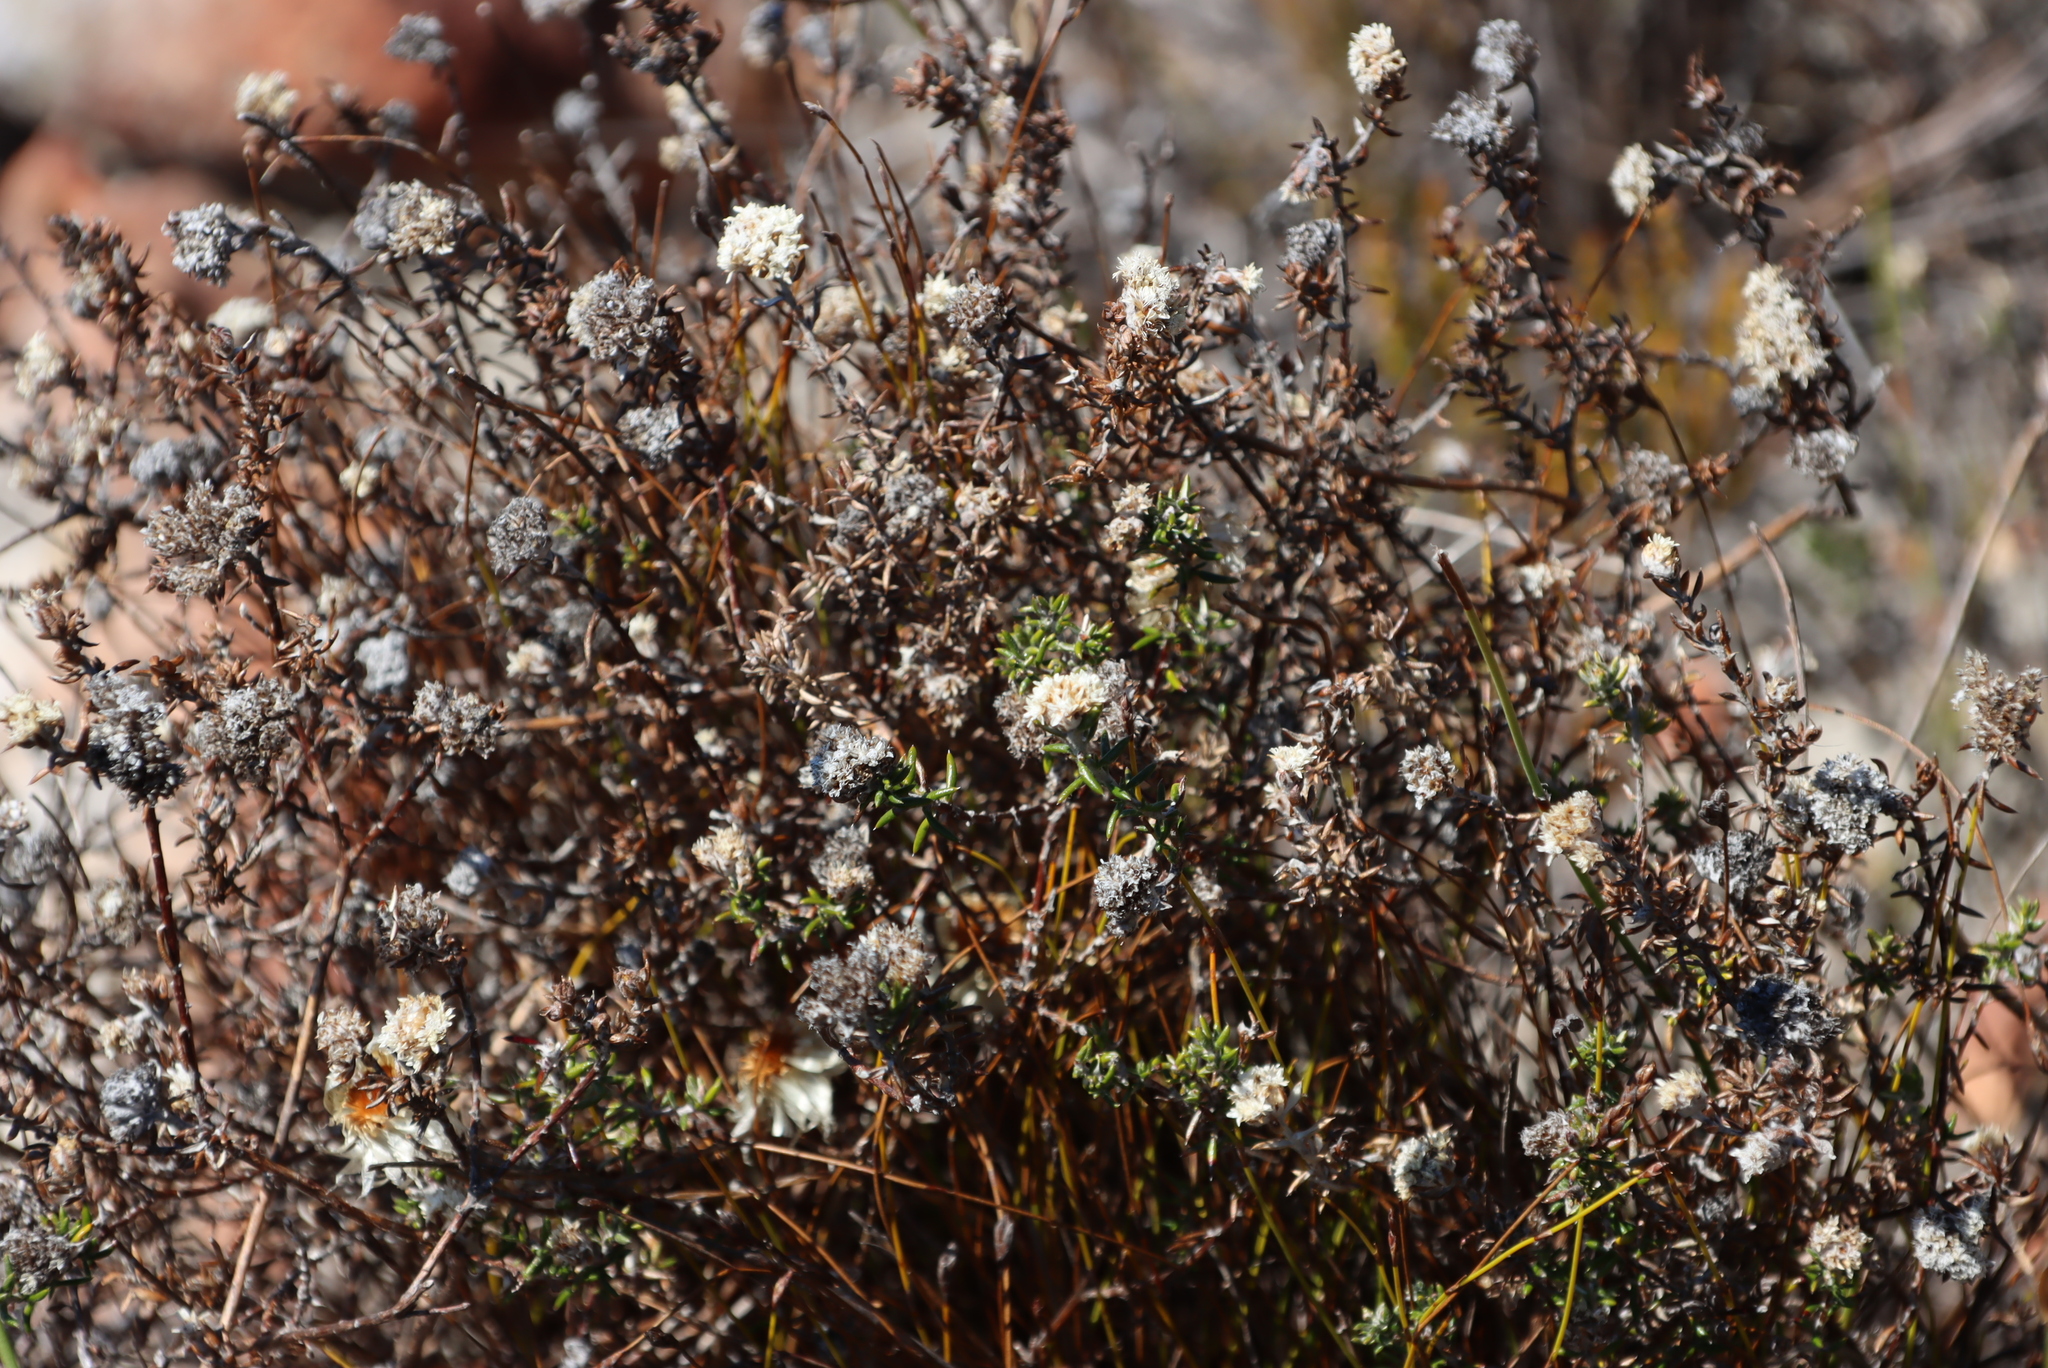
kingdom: Plantae
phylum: Tracheophyta
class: Magnoliopsida
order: Asterales
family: Asteraceae
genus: Metalasia
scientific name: Metalasia divergens
